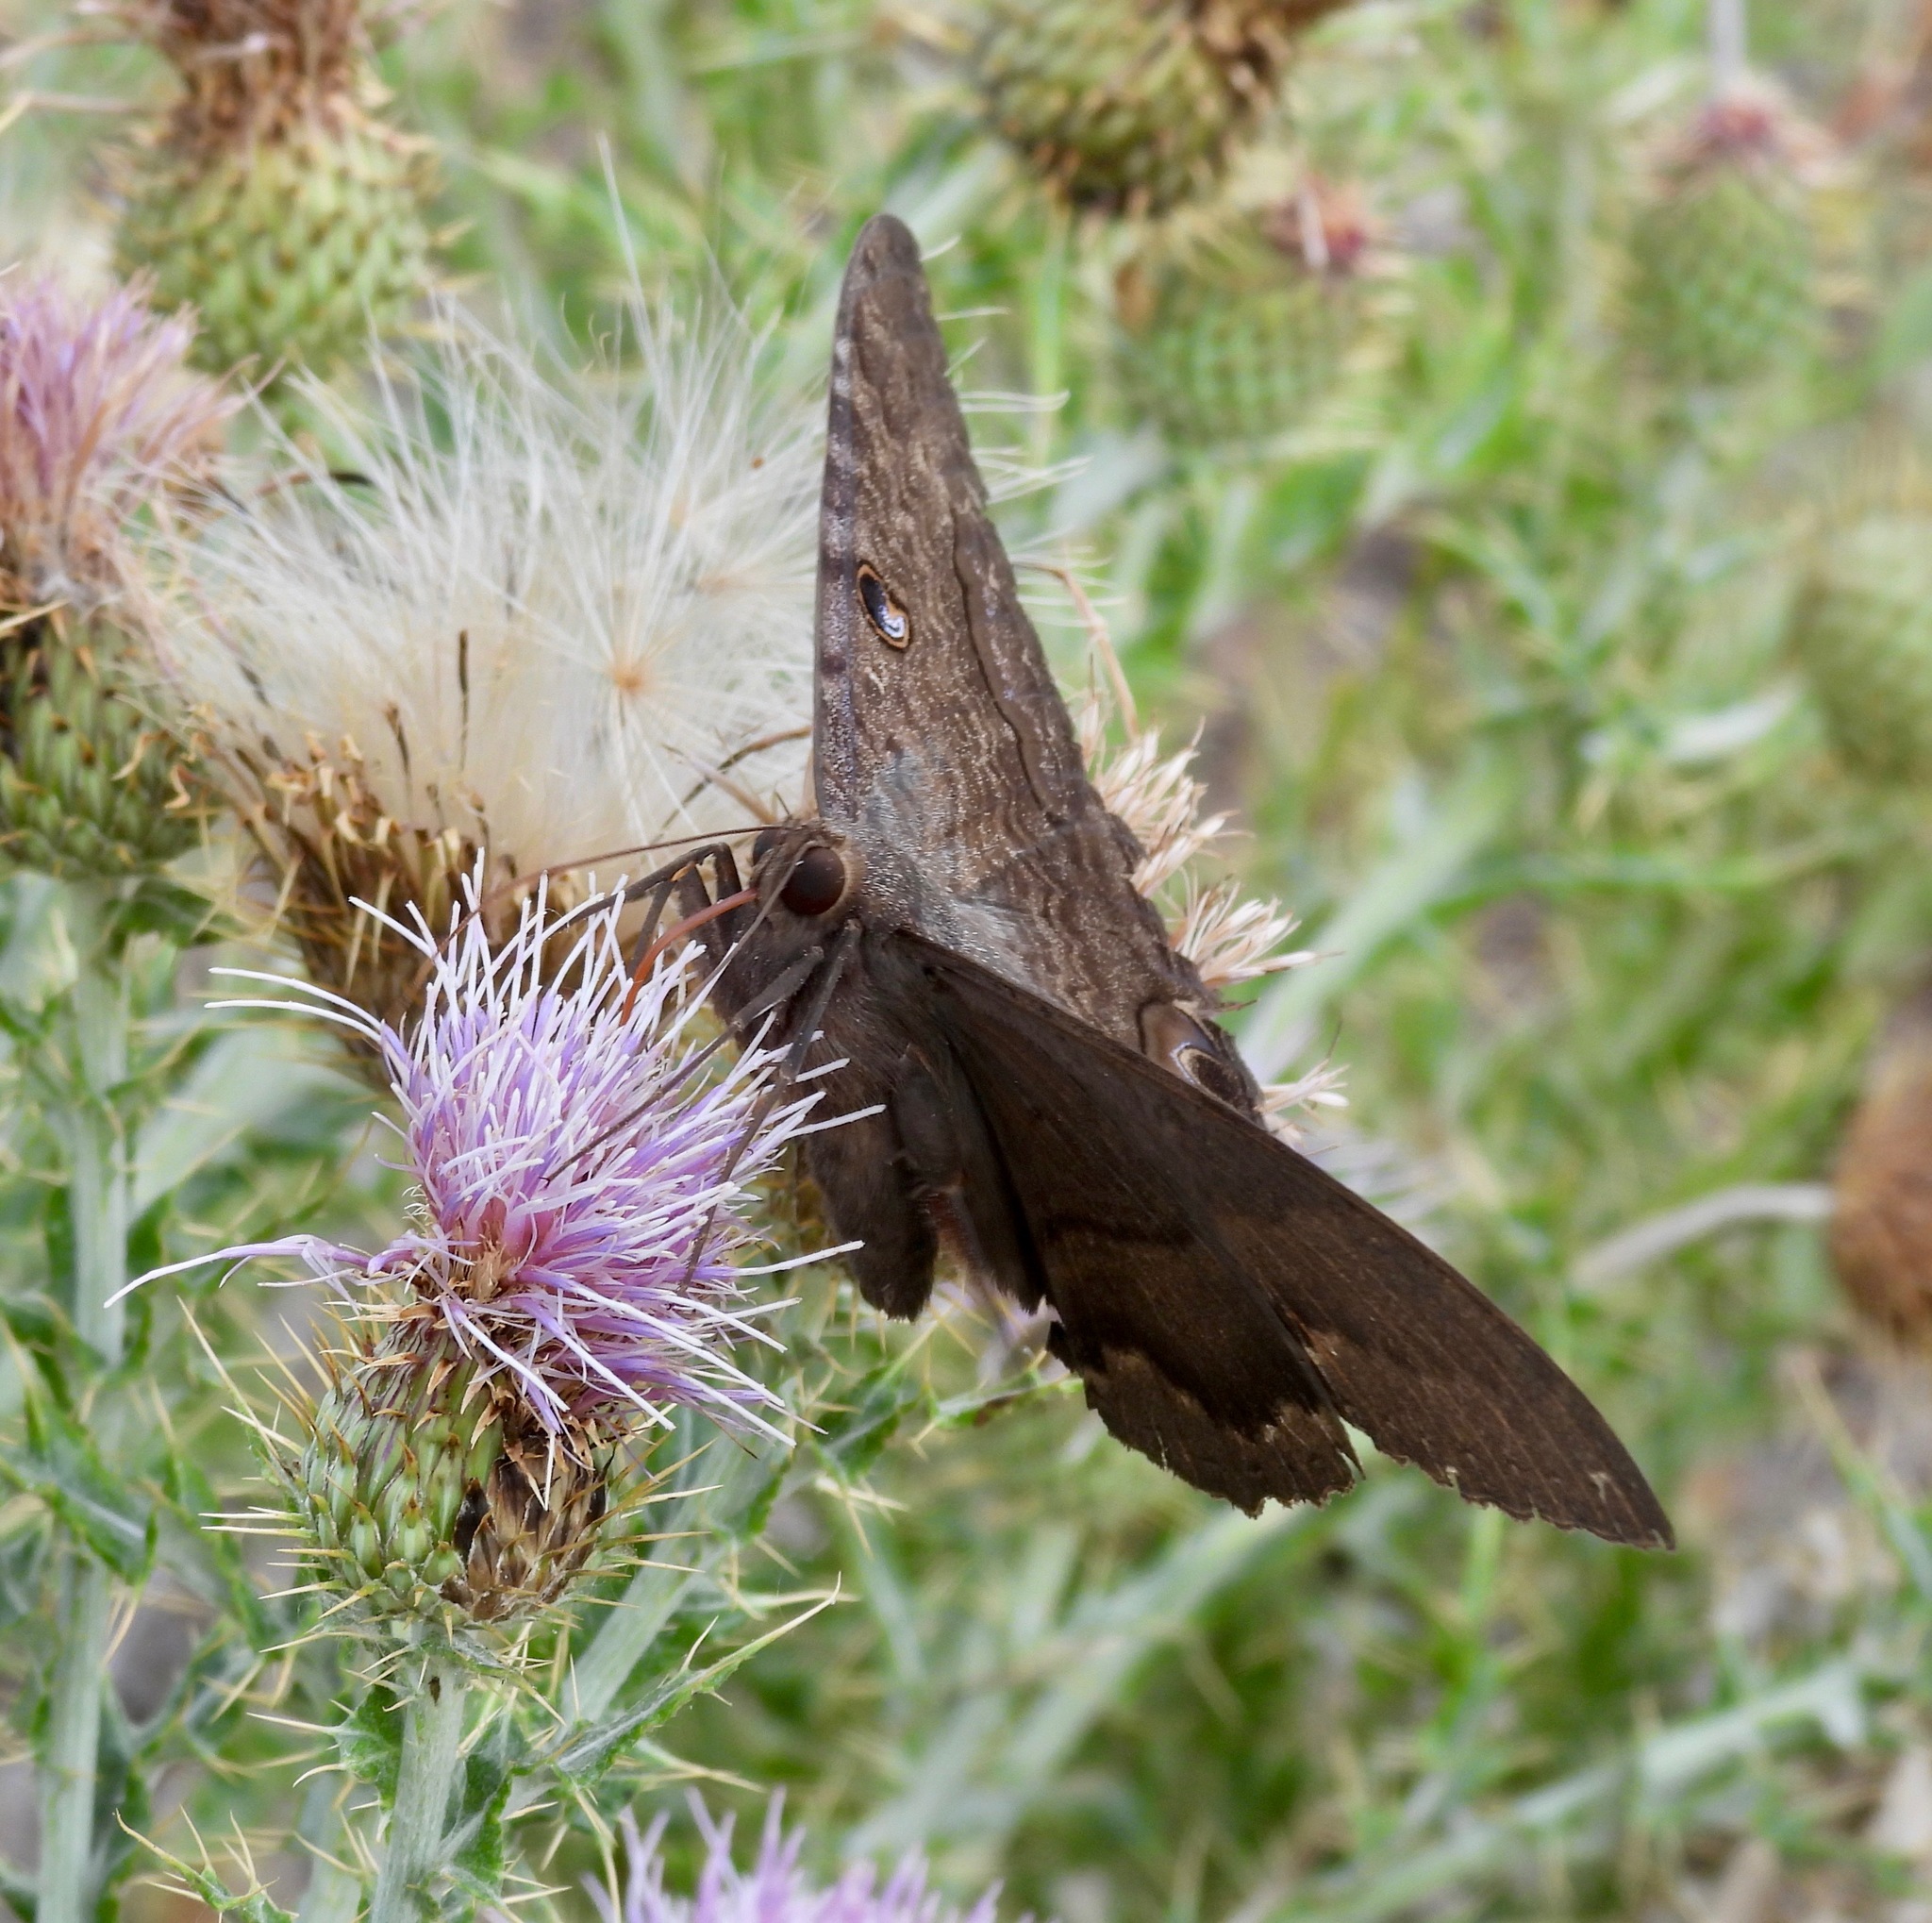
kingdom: Animalia
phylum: Arthropoda
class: Insecta
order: Lepidoptera
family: Erebidae
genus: Ascalapha
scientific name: Ascalapha odorata
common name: Black witch
